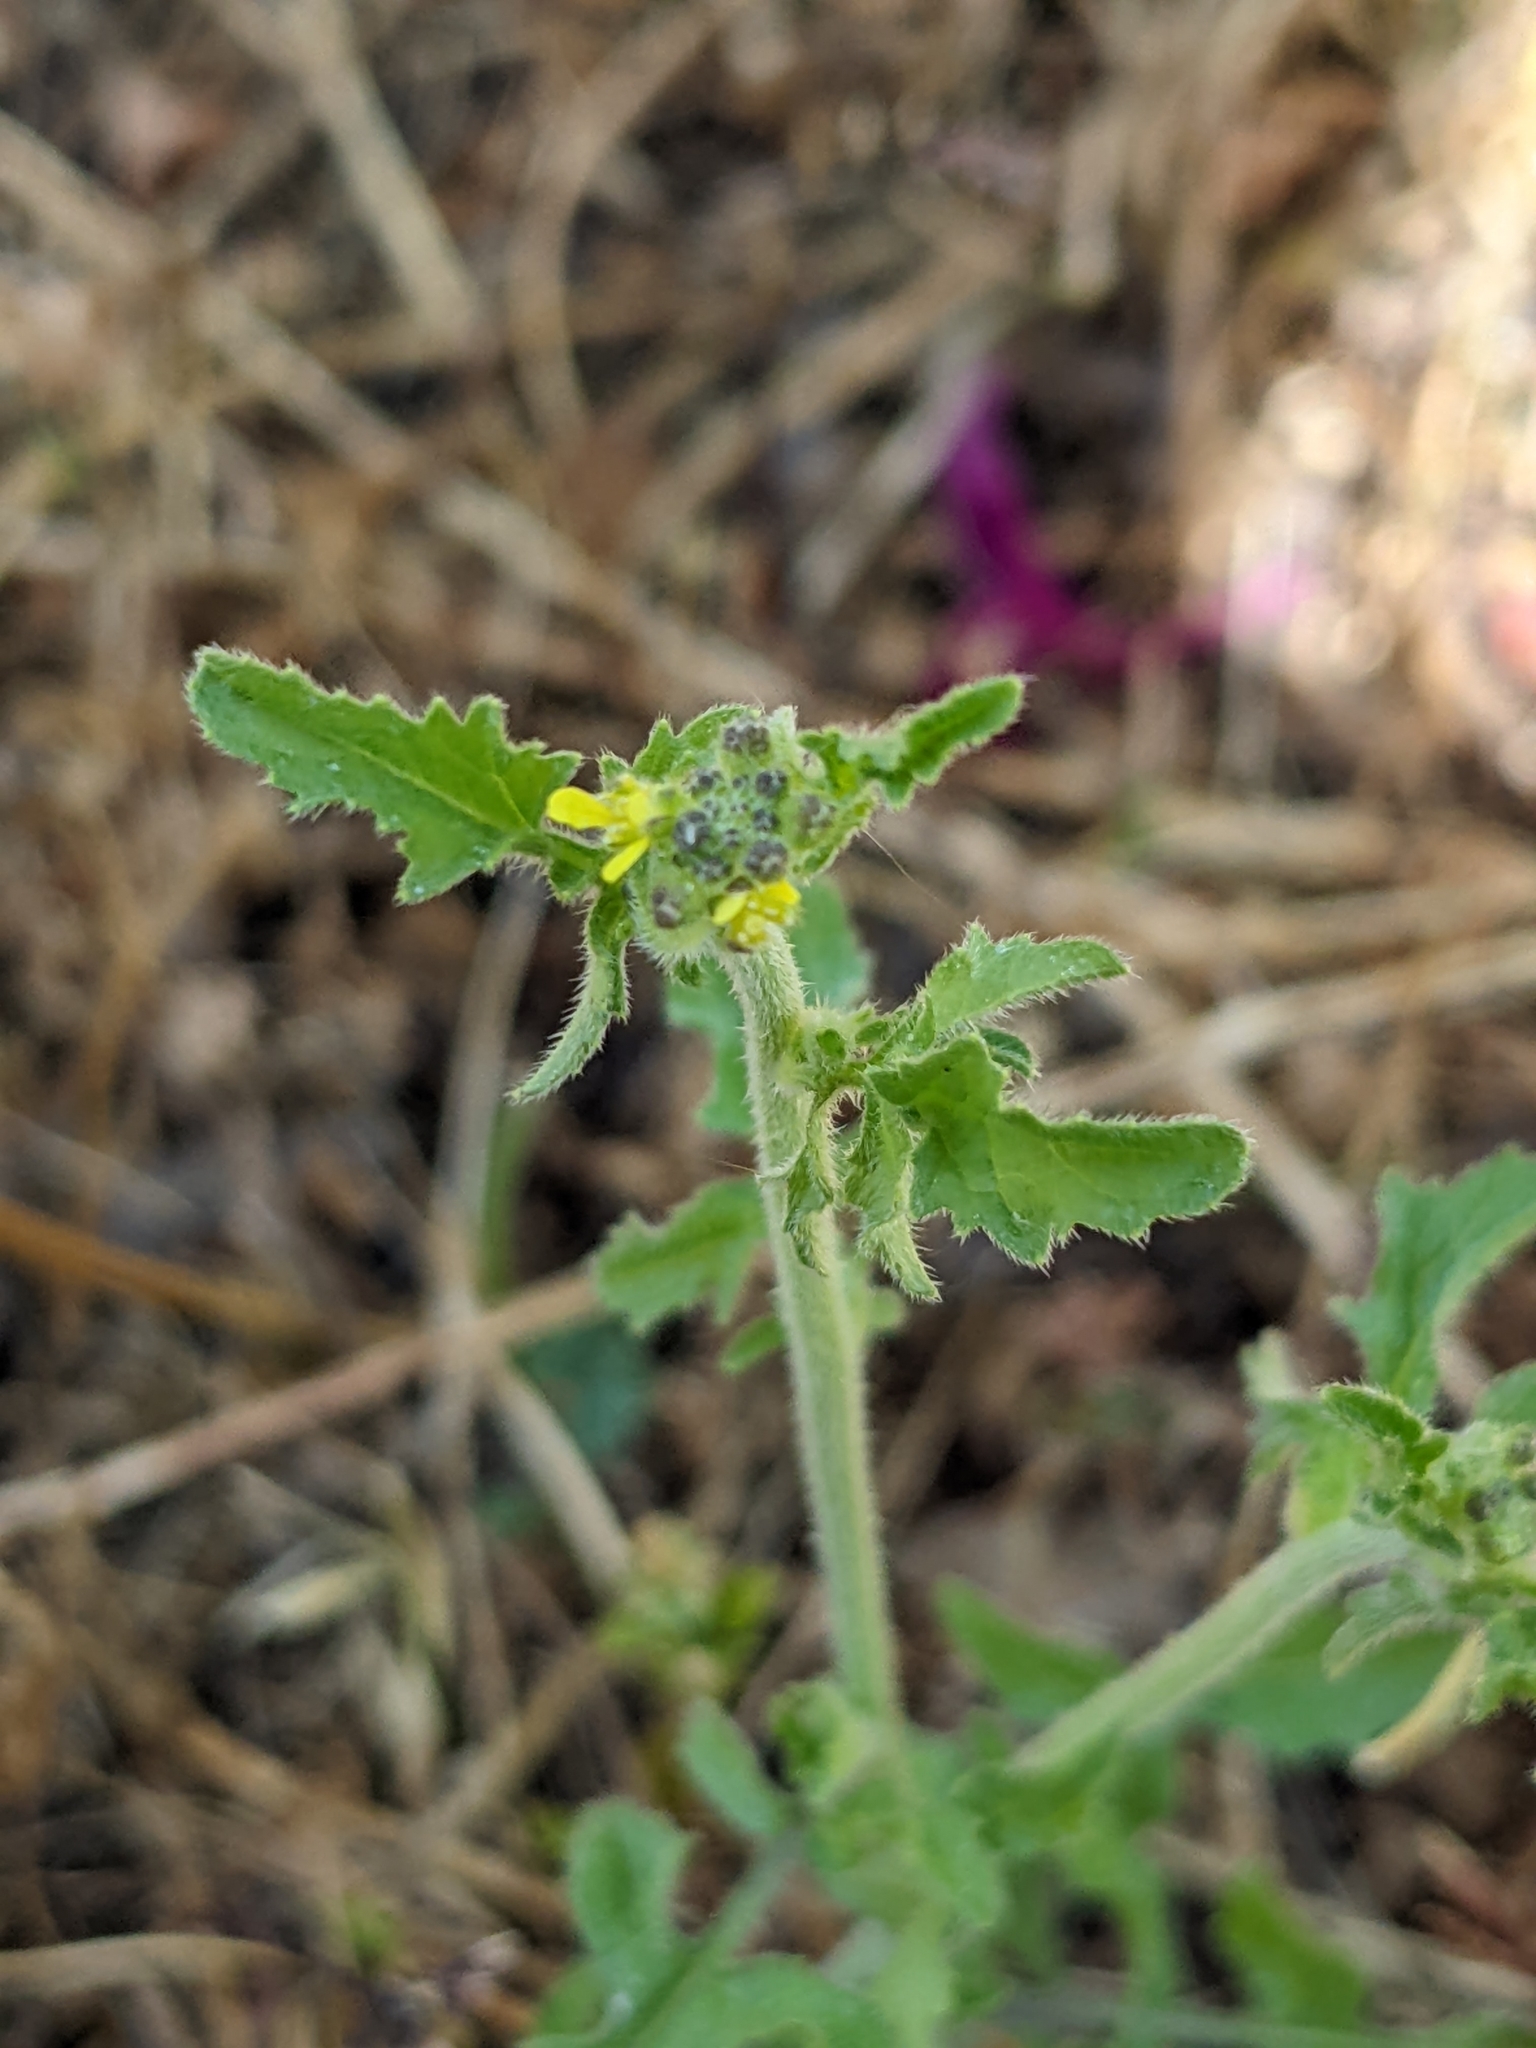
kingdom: Plantae
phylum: Tracheophyta
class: Magnoliopsida
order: Brassicales
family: Brassicaceae
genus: Sisymbrium
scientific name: Sisymbrium officinale
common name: Hedge mustard
